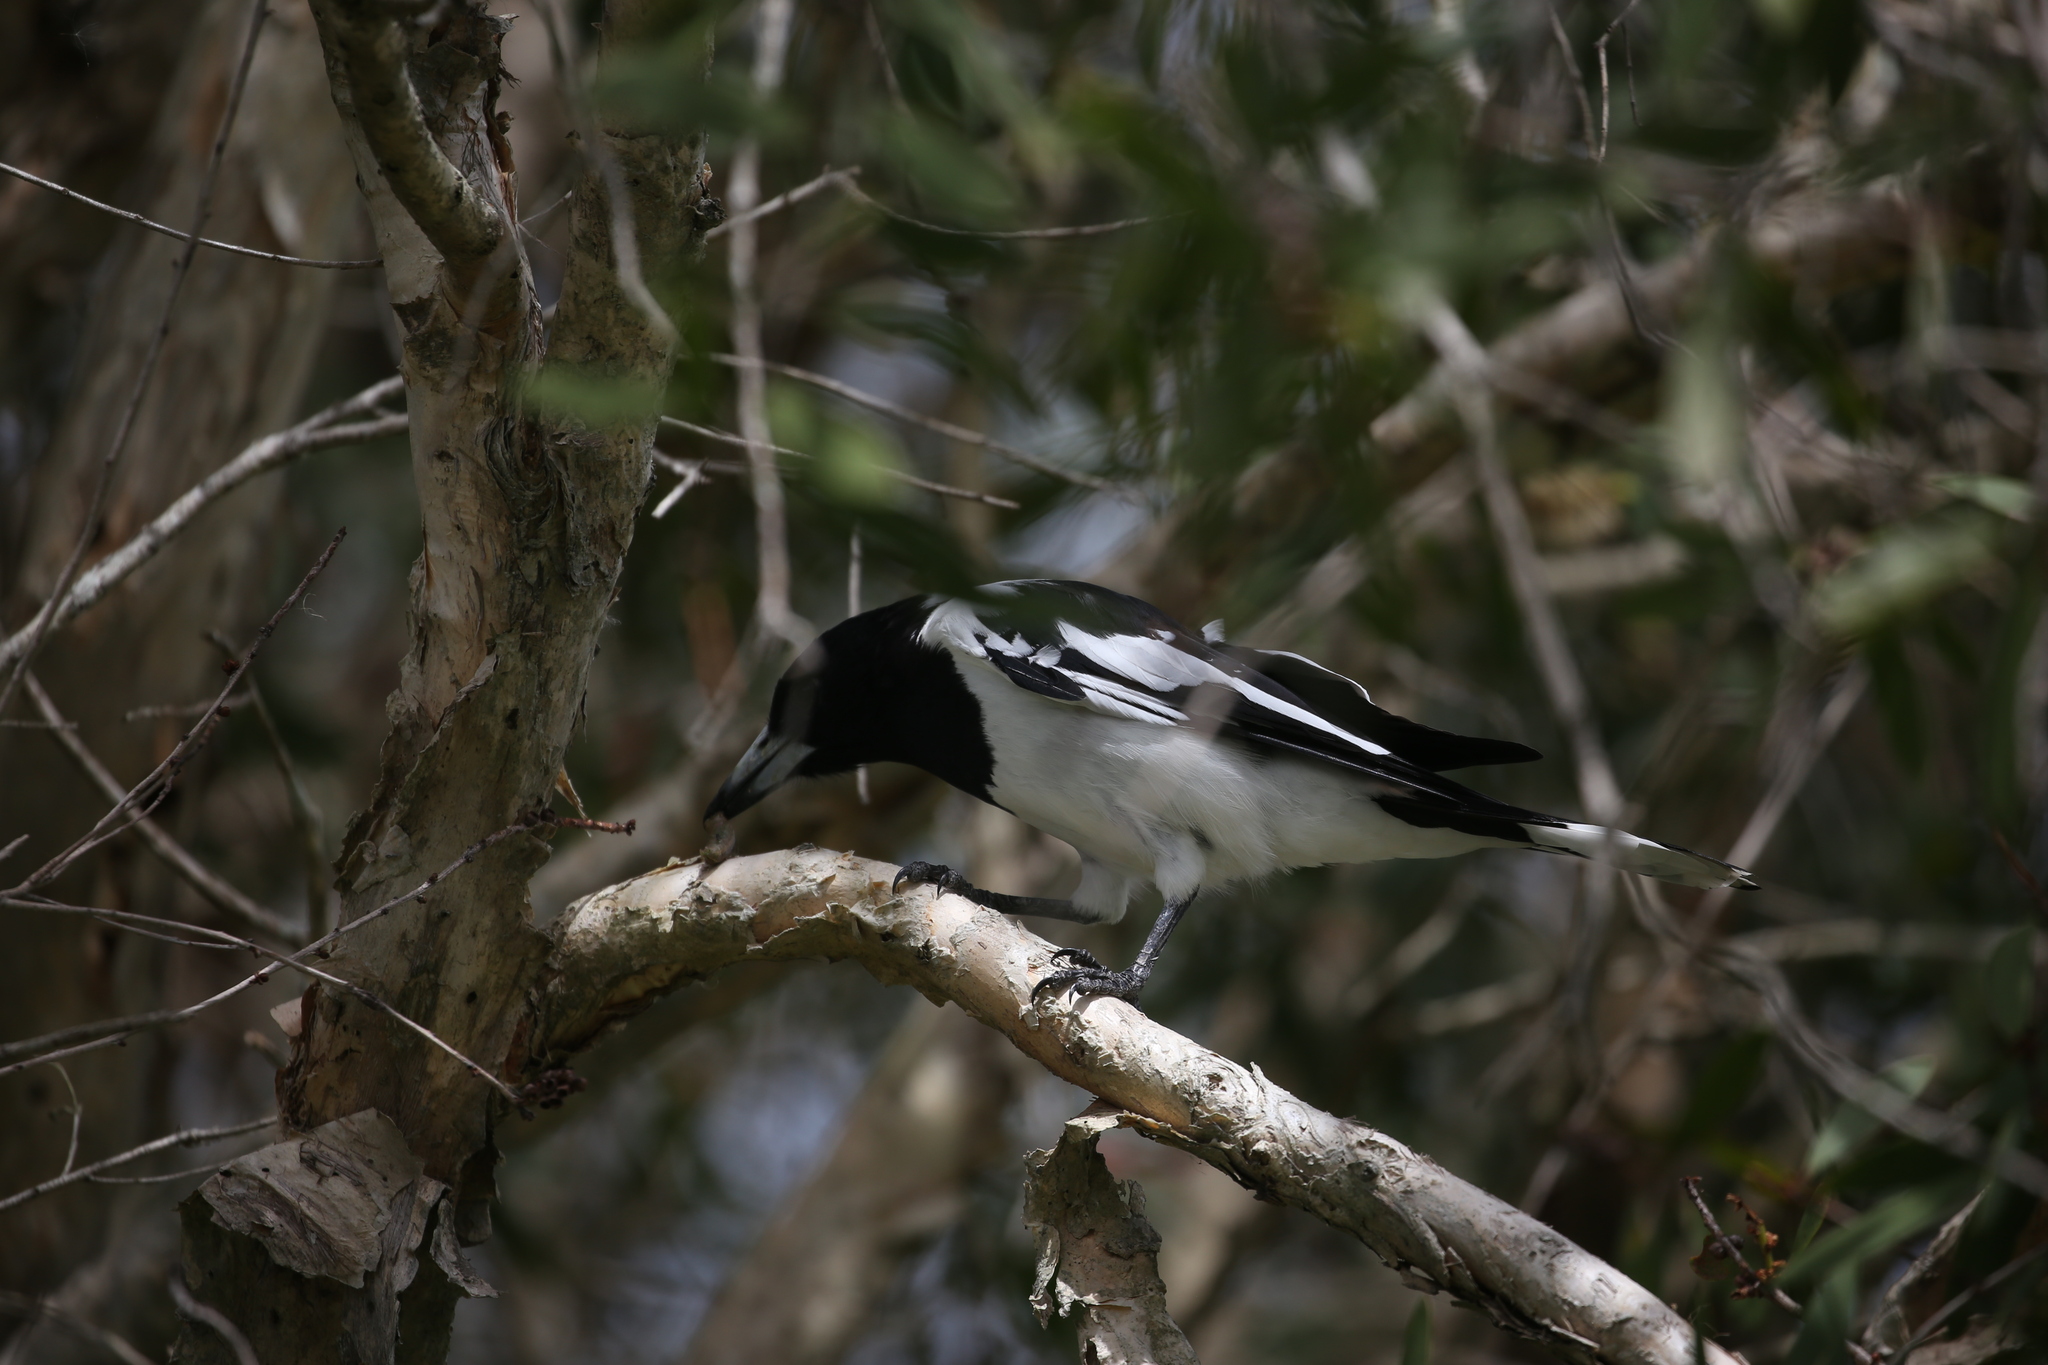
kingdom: Animalia
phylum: Chordata
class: Aves
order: Passeriformes
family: Cracticidae
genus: Cracticus
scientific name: Cracticus nigrogularis
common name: Pied butcherbird
